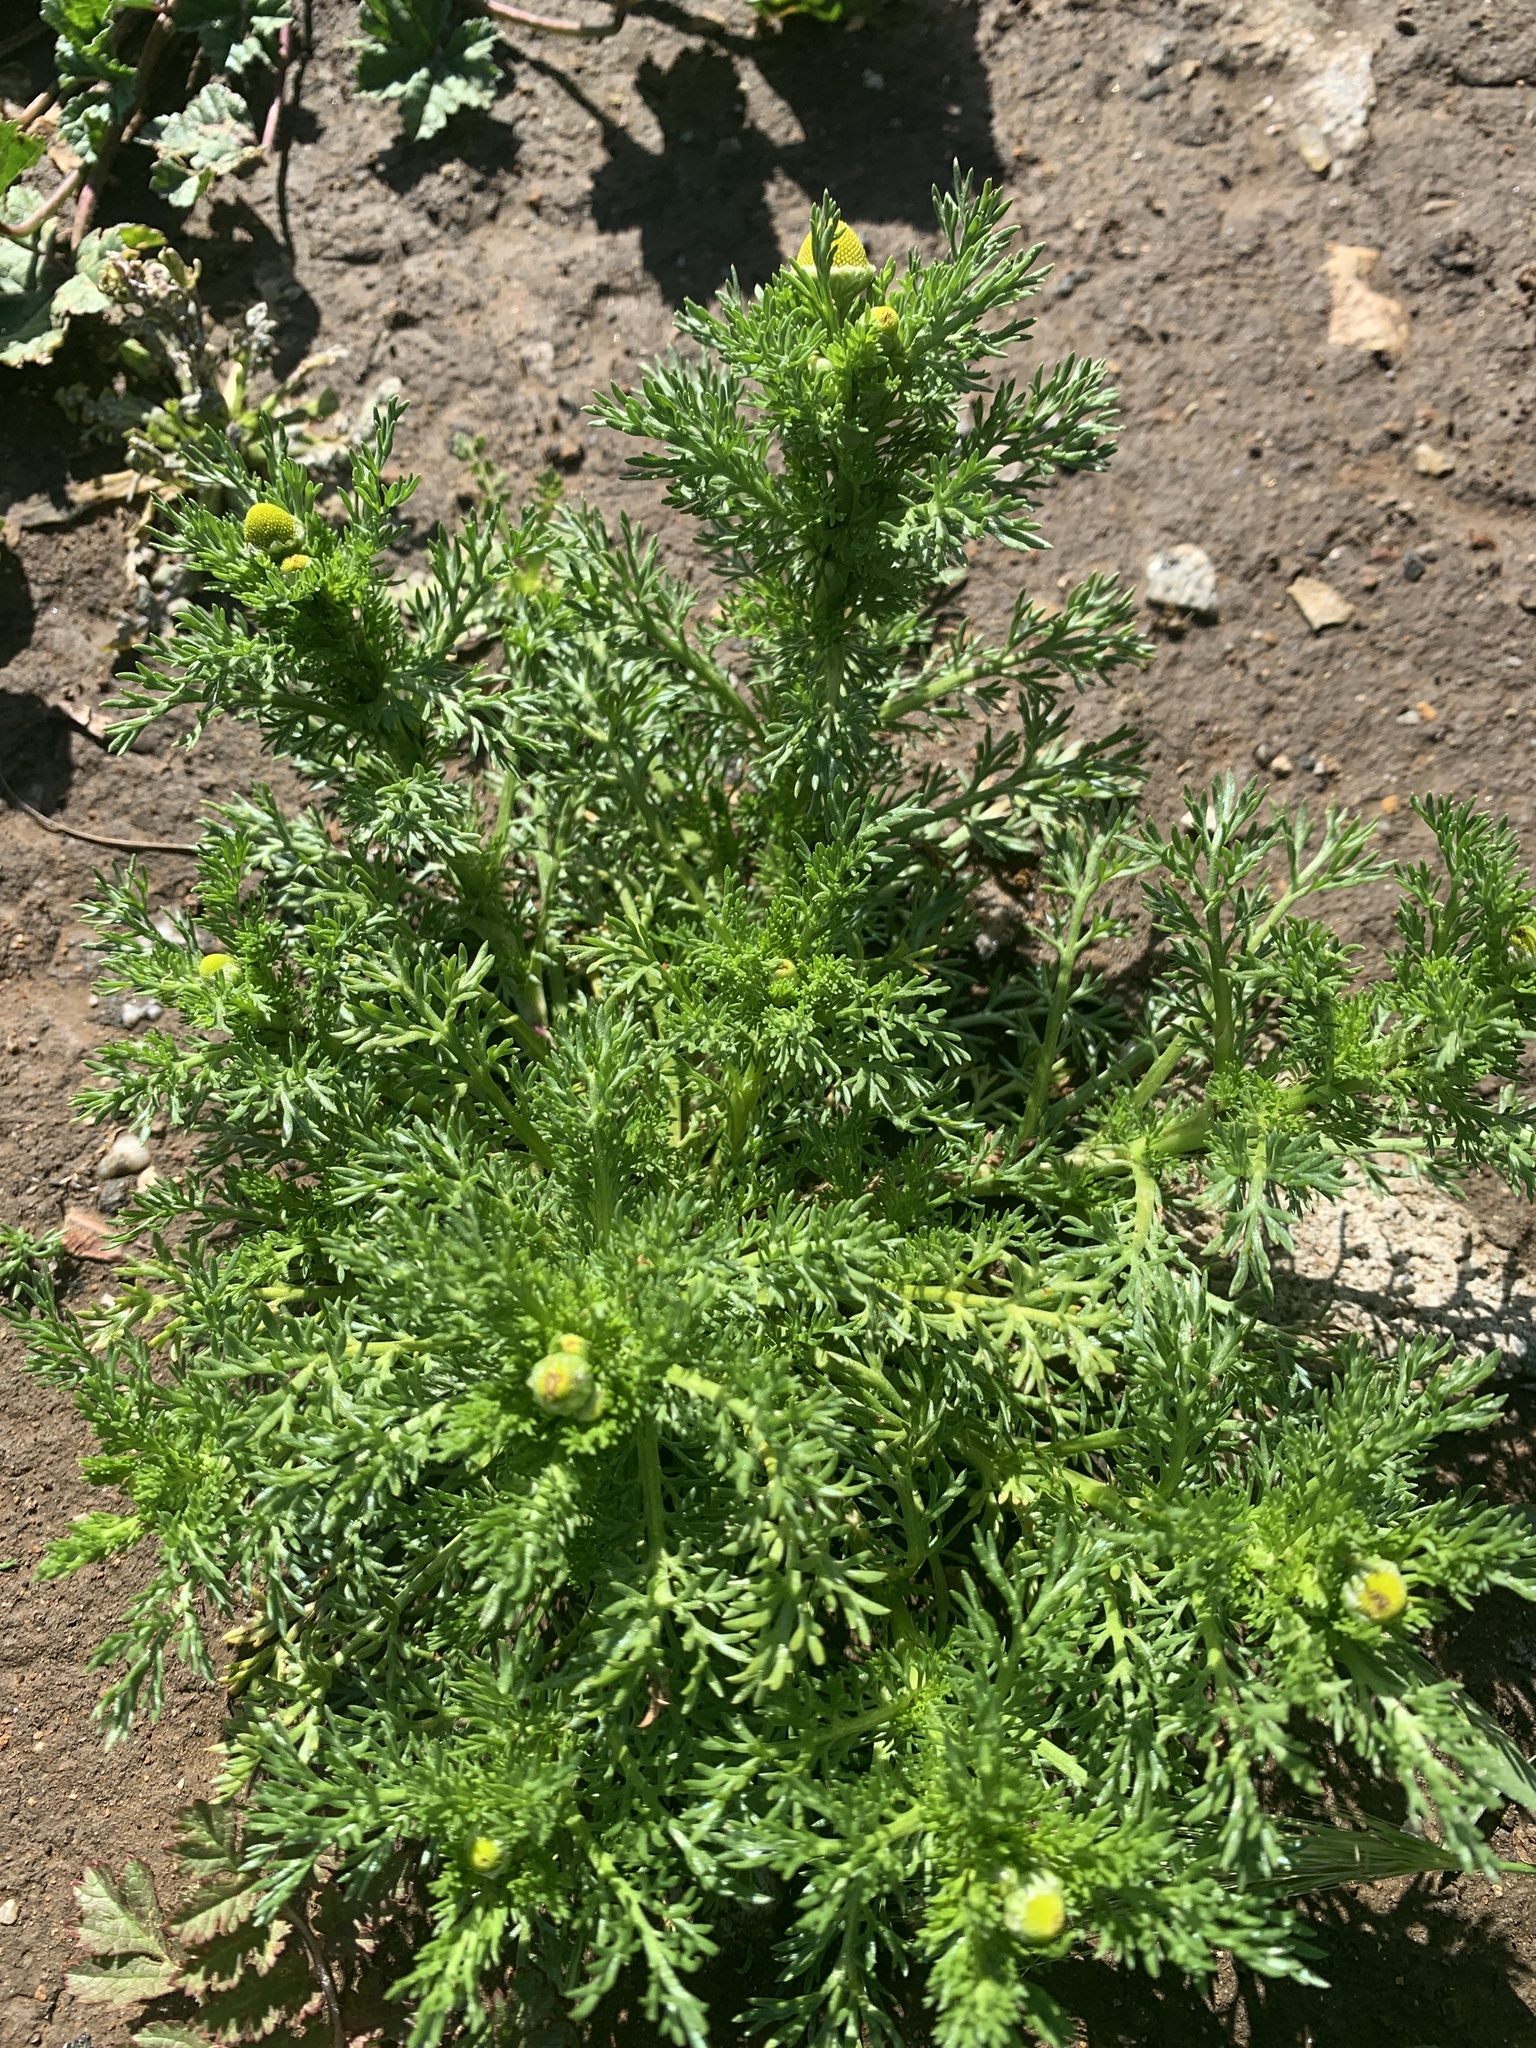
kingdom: Plantae
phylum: Tracheophyta
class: Magnoliopsida
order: Asterales
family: Asteraceae
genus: Matricaria
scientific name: Matricaria discoidea
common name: Disc mayweed
